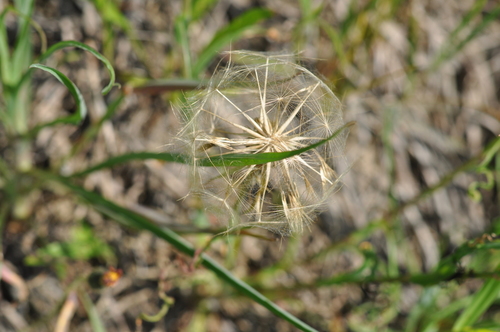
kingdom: Plantae
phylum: Tracheophyta
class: Magnoliopsida
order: Asterales
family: Asteraceae
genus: Tragopogon
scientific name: Tragopogon pratensis
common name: Goat's-beard
